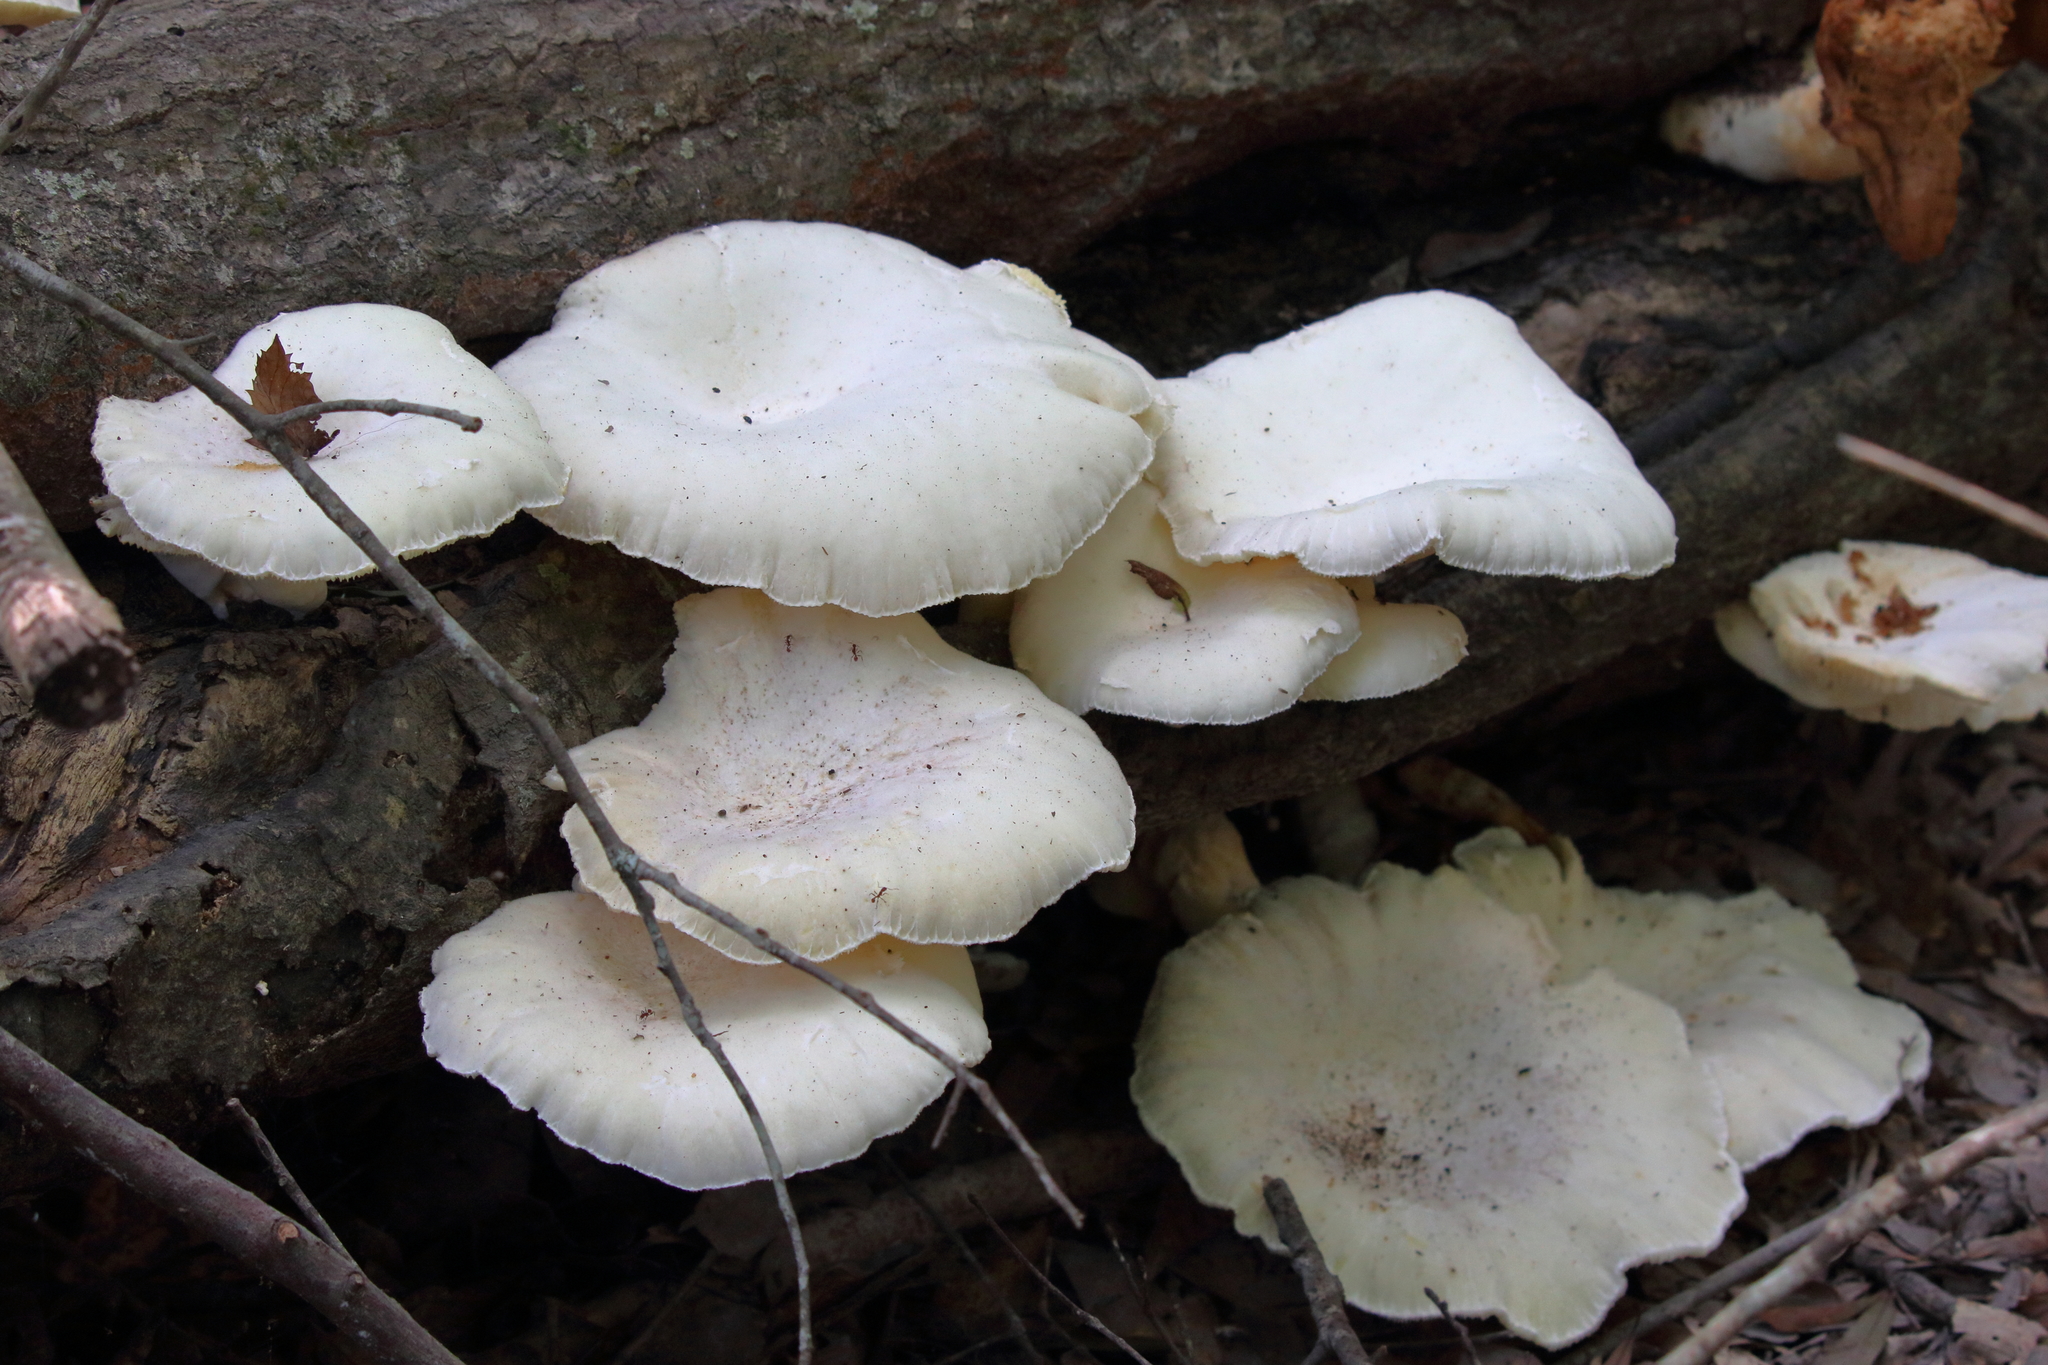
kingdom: Fungi
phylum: Basidiomycota
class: Agaricomycetes
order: Agaricales
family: Pleurotaceae
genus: Pleurotus
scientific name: Pleurotus dryinus
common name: Veiled oyster
